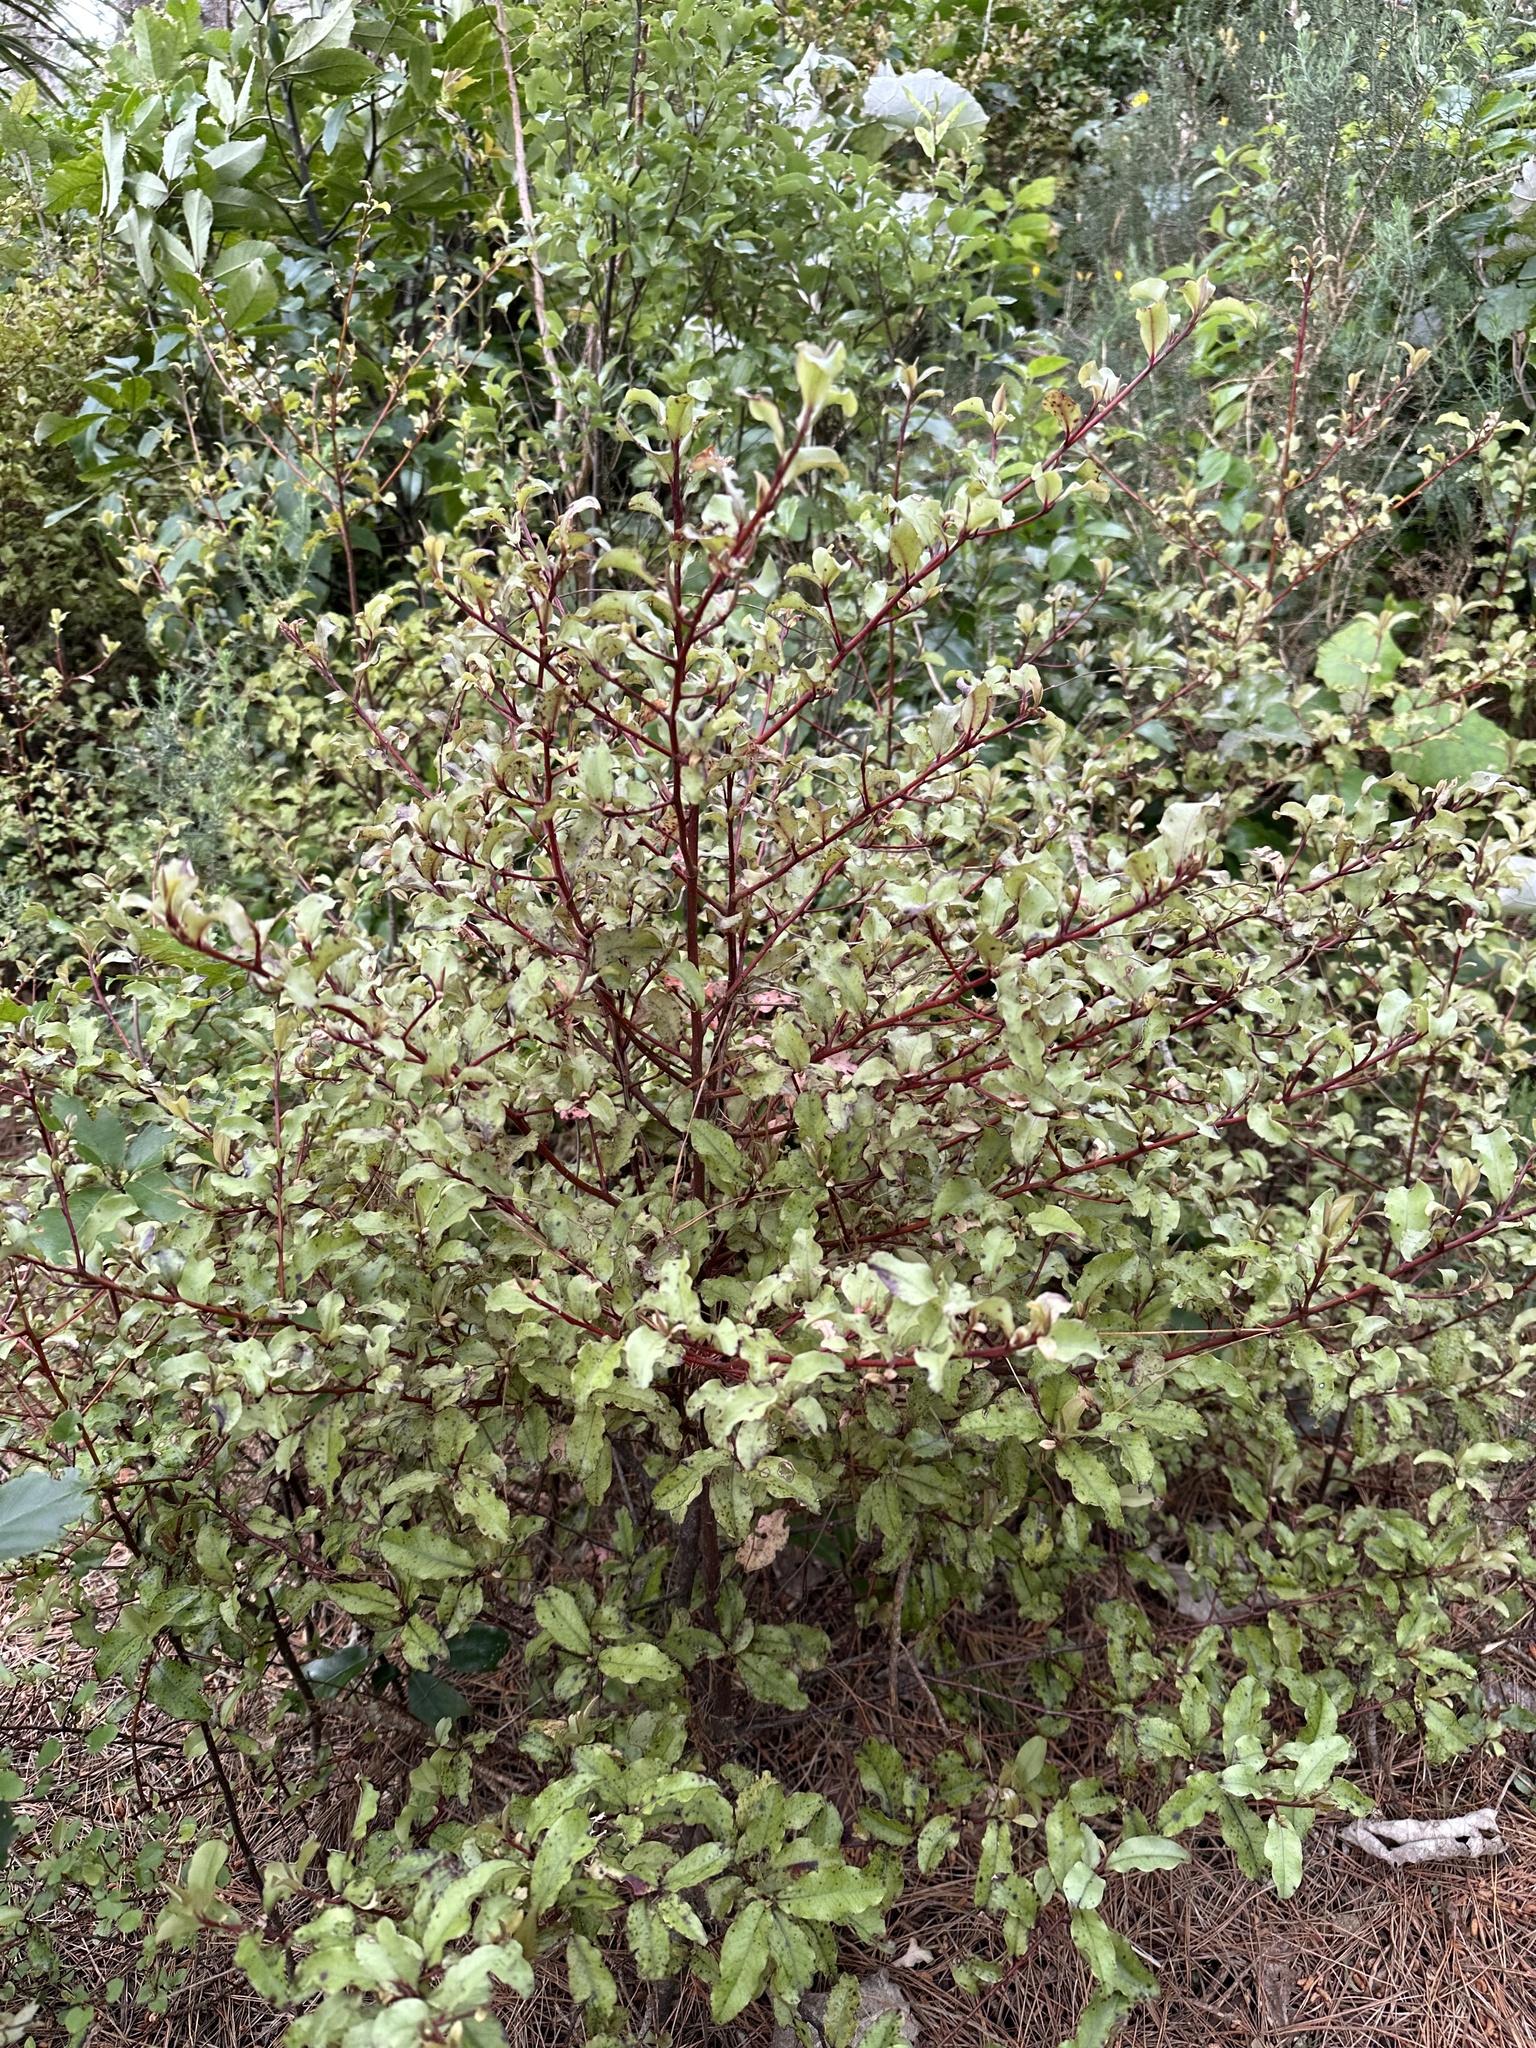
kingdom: Plantae
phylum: Tracheophyta
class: Magnoliopsida
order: Ericales
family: Primulaceae
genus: Myrsine
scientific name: Myrsine australis
